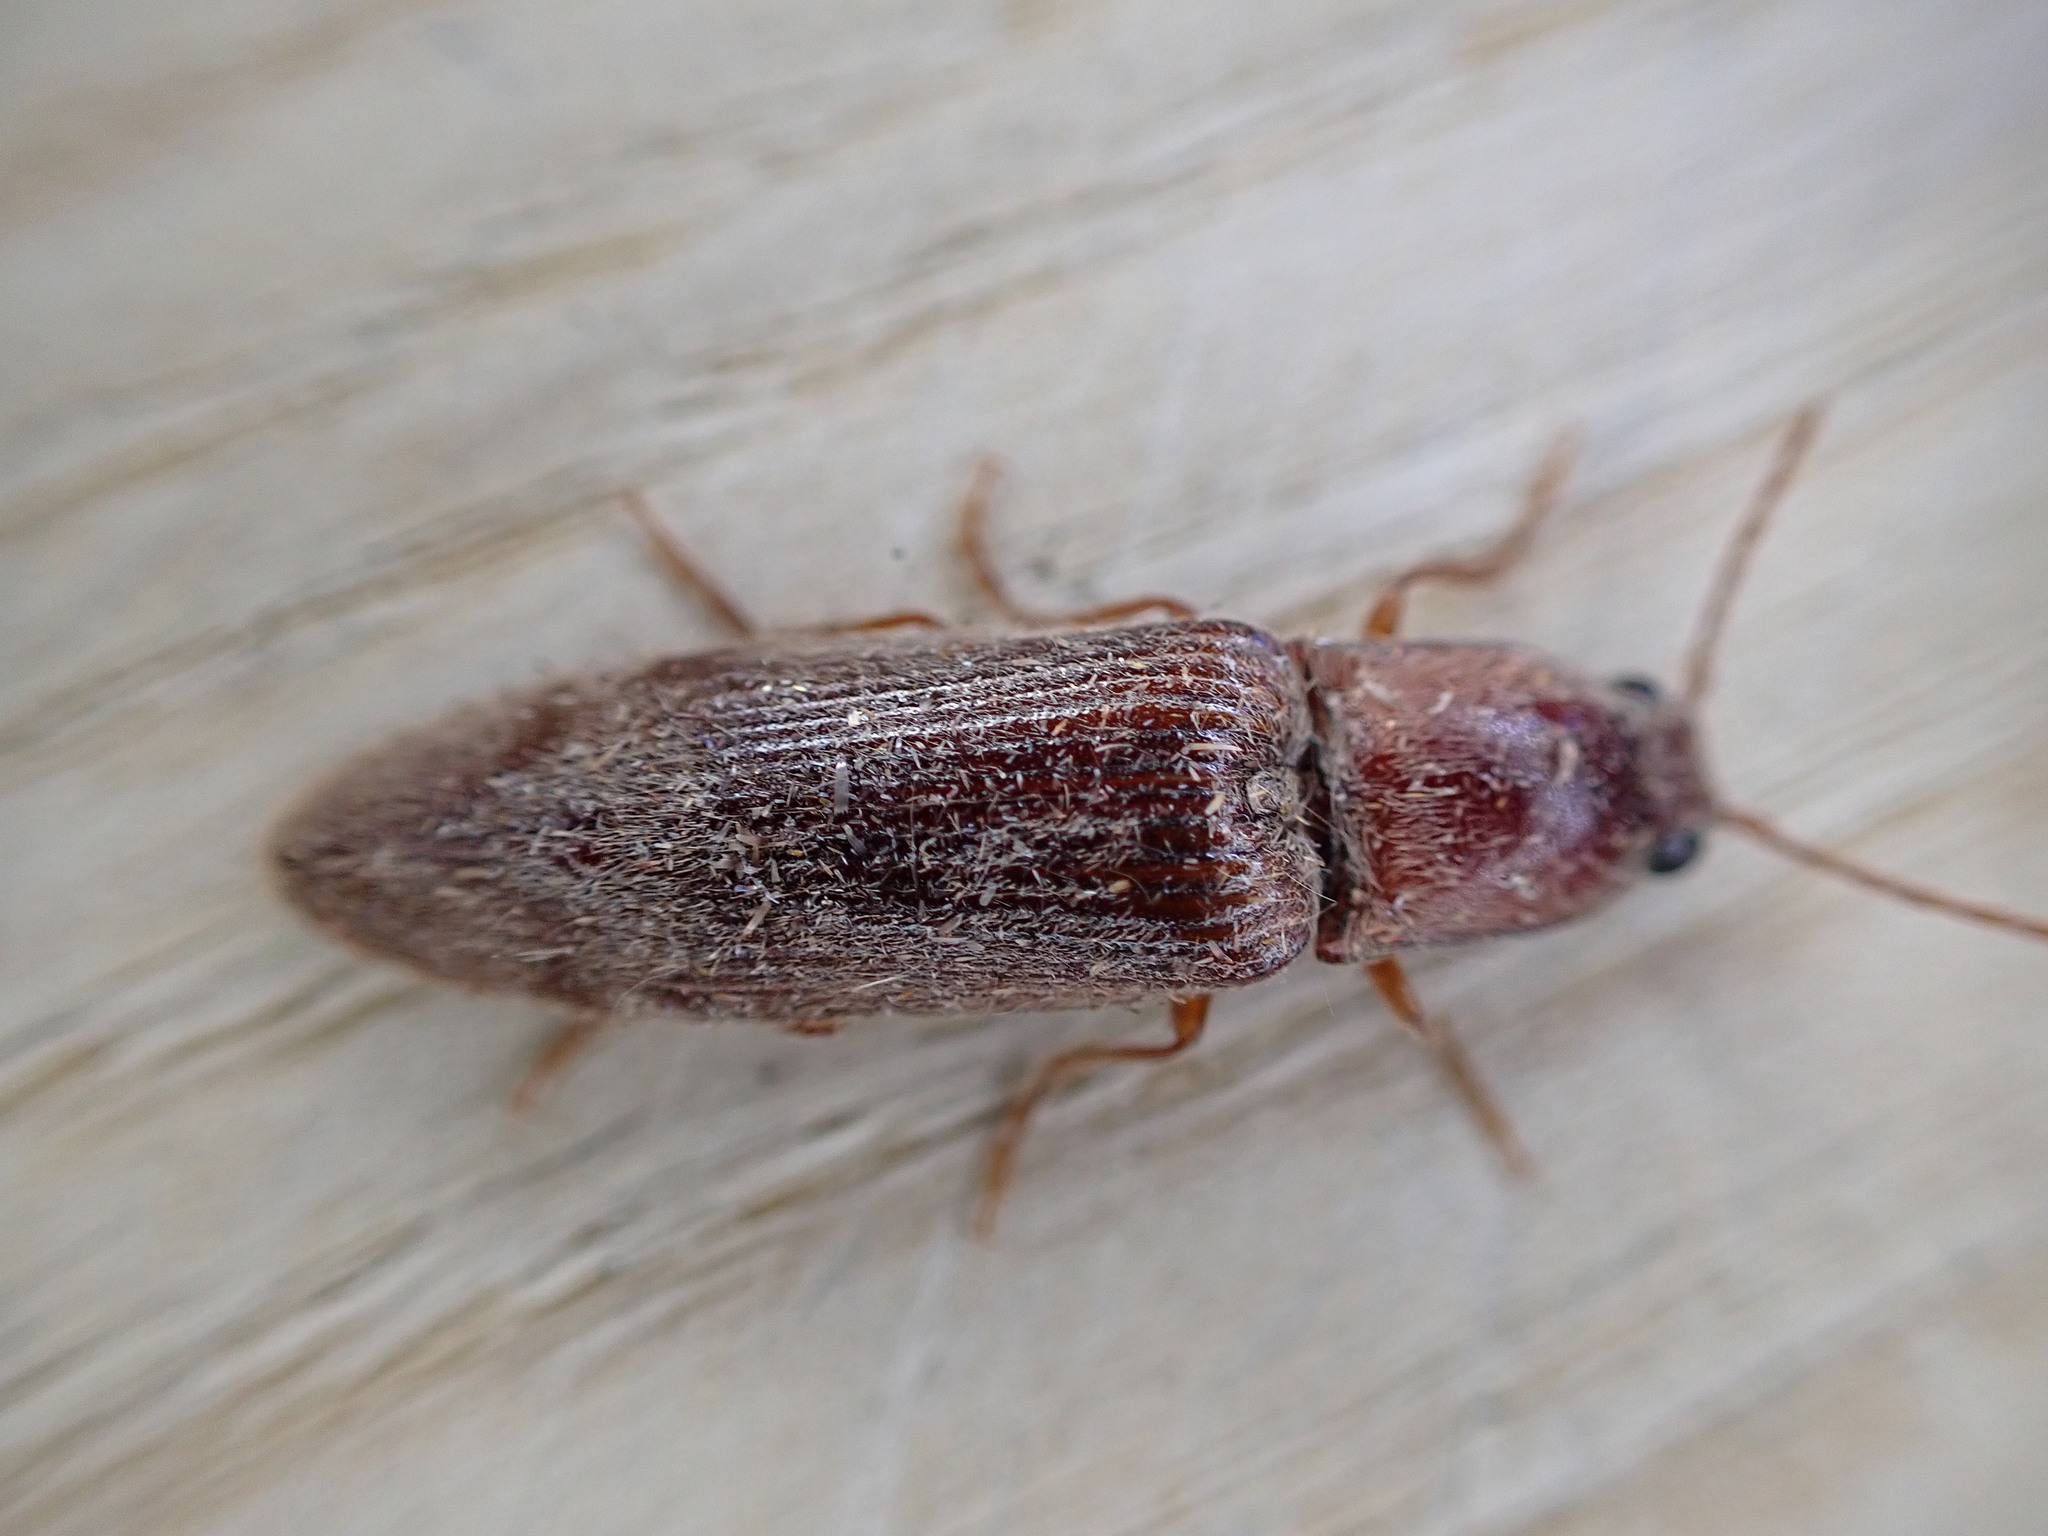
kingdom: Animalia
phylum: Arthropoda
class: Insecta
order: Coleoptera
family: Elateridae
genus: Stenagostus
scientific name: Stenagostus rhombeus
